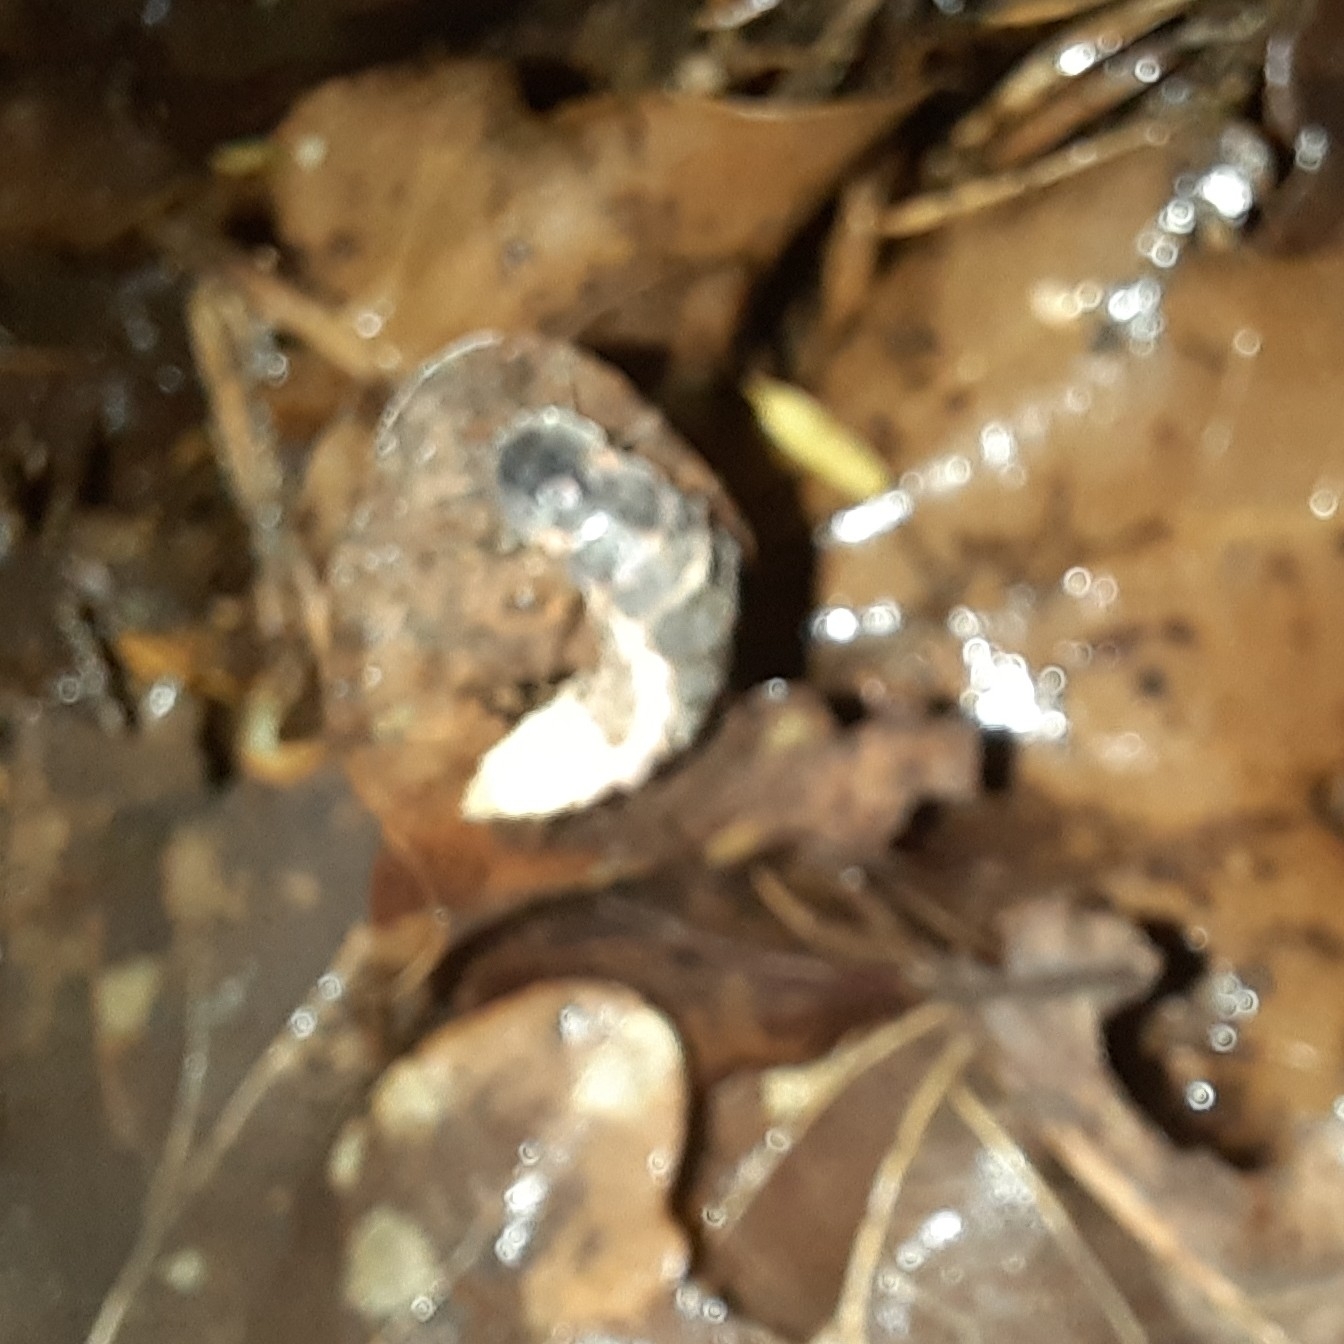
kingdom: Animalia
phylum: Arthropoda
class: Insecta
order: Coleoptera
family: Lampyridae
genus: Lampyris
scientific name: Lampyris noctiluca
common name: Glow-worm
